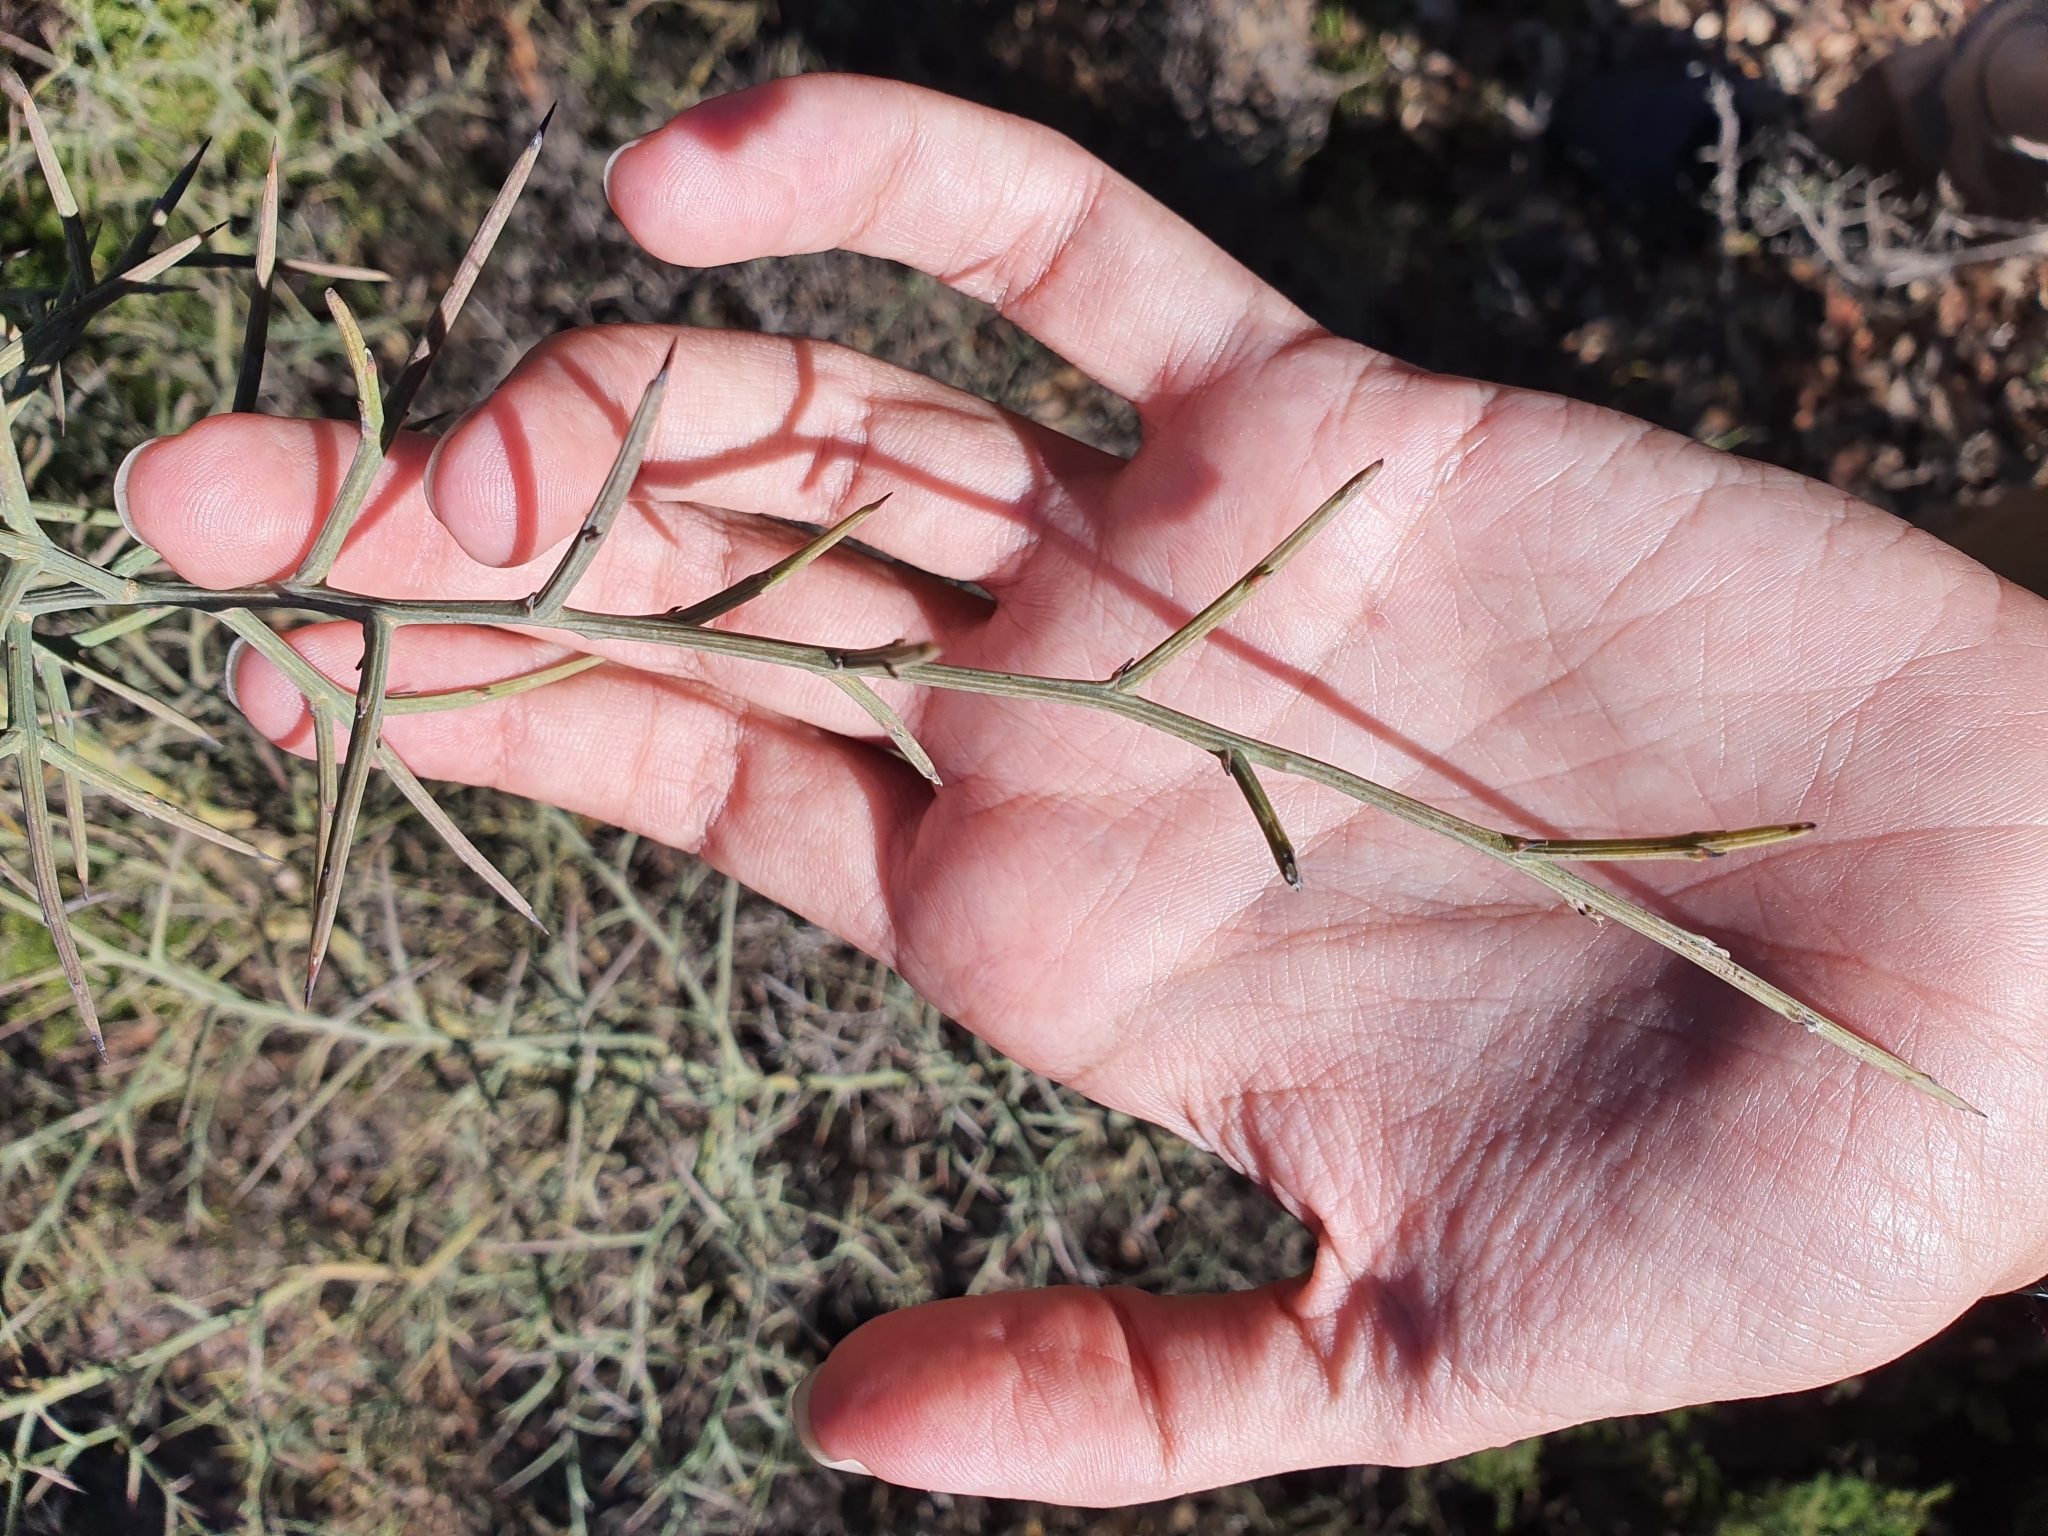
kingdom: Plantae
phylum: Tracheophyta
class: Magnoliopsida
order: Fabales
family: Fabaceae
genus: Calicotome
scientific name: Calicotome spinosa
